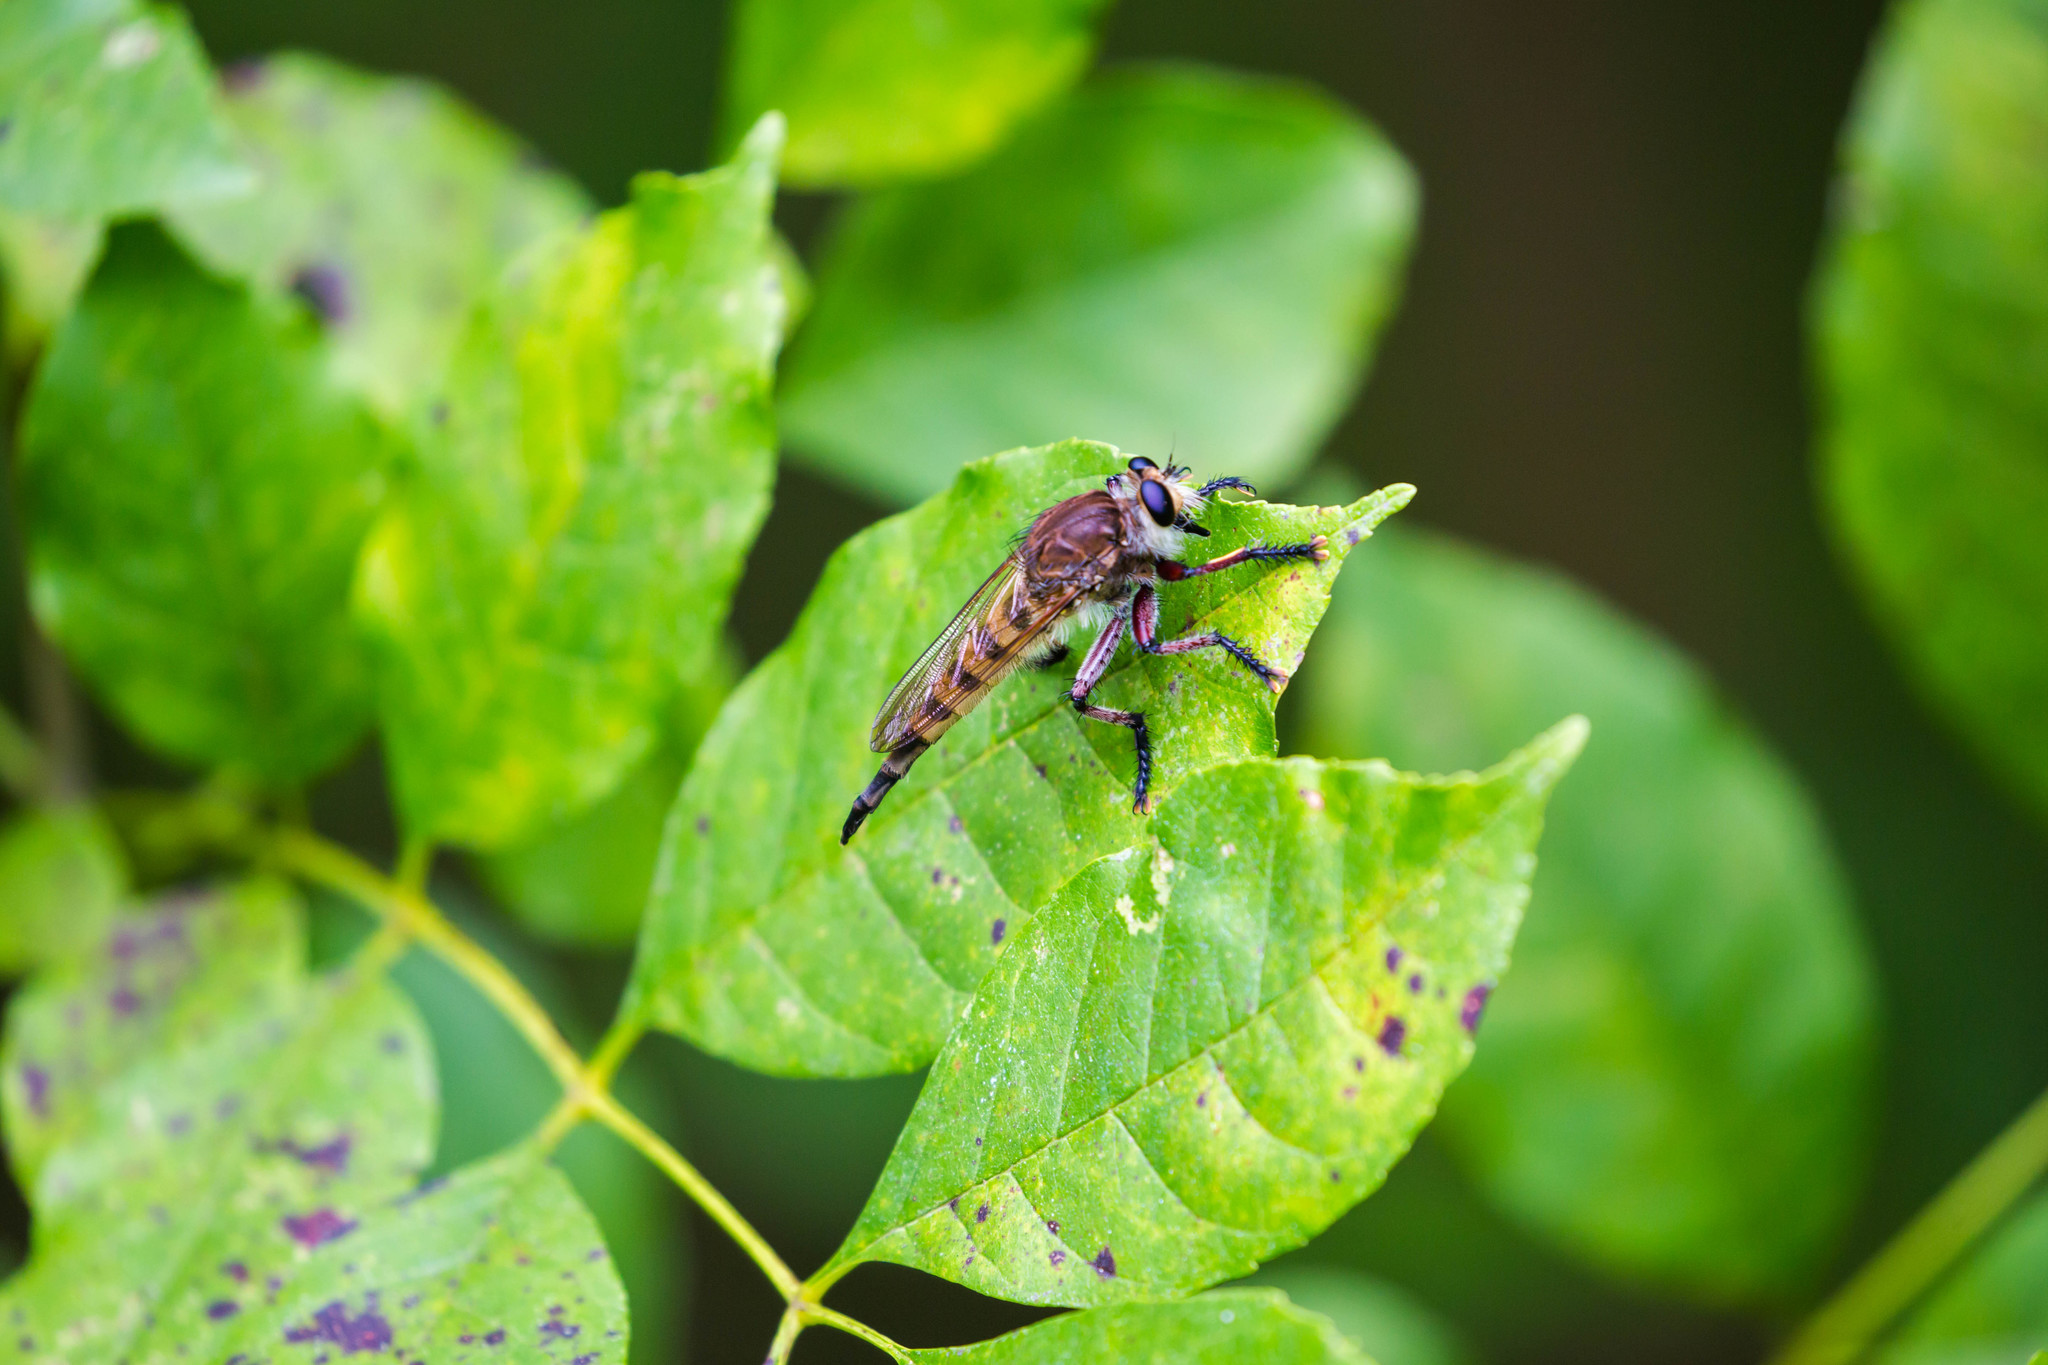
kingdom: Animalia
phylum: Arthropoda
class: Insecta
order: Diptera
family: Asilidae
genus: Promachus
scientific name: Promachus hinei
